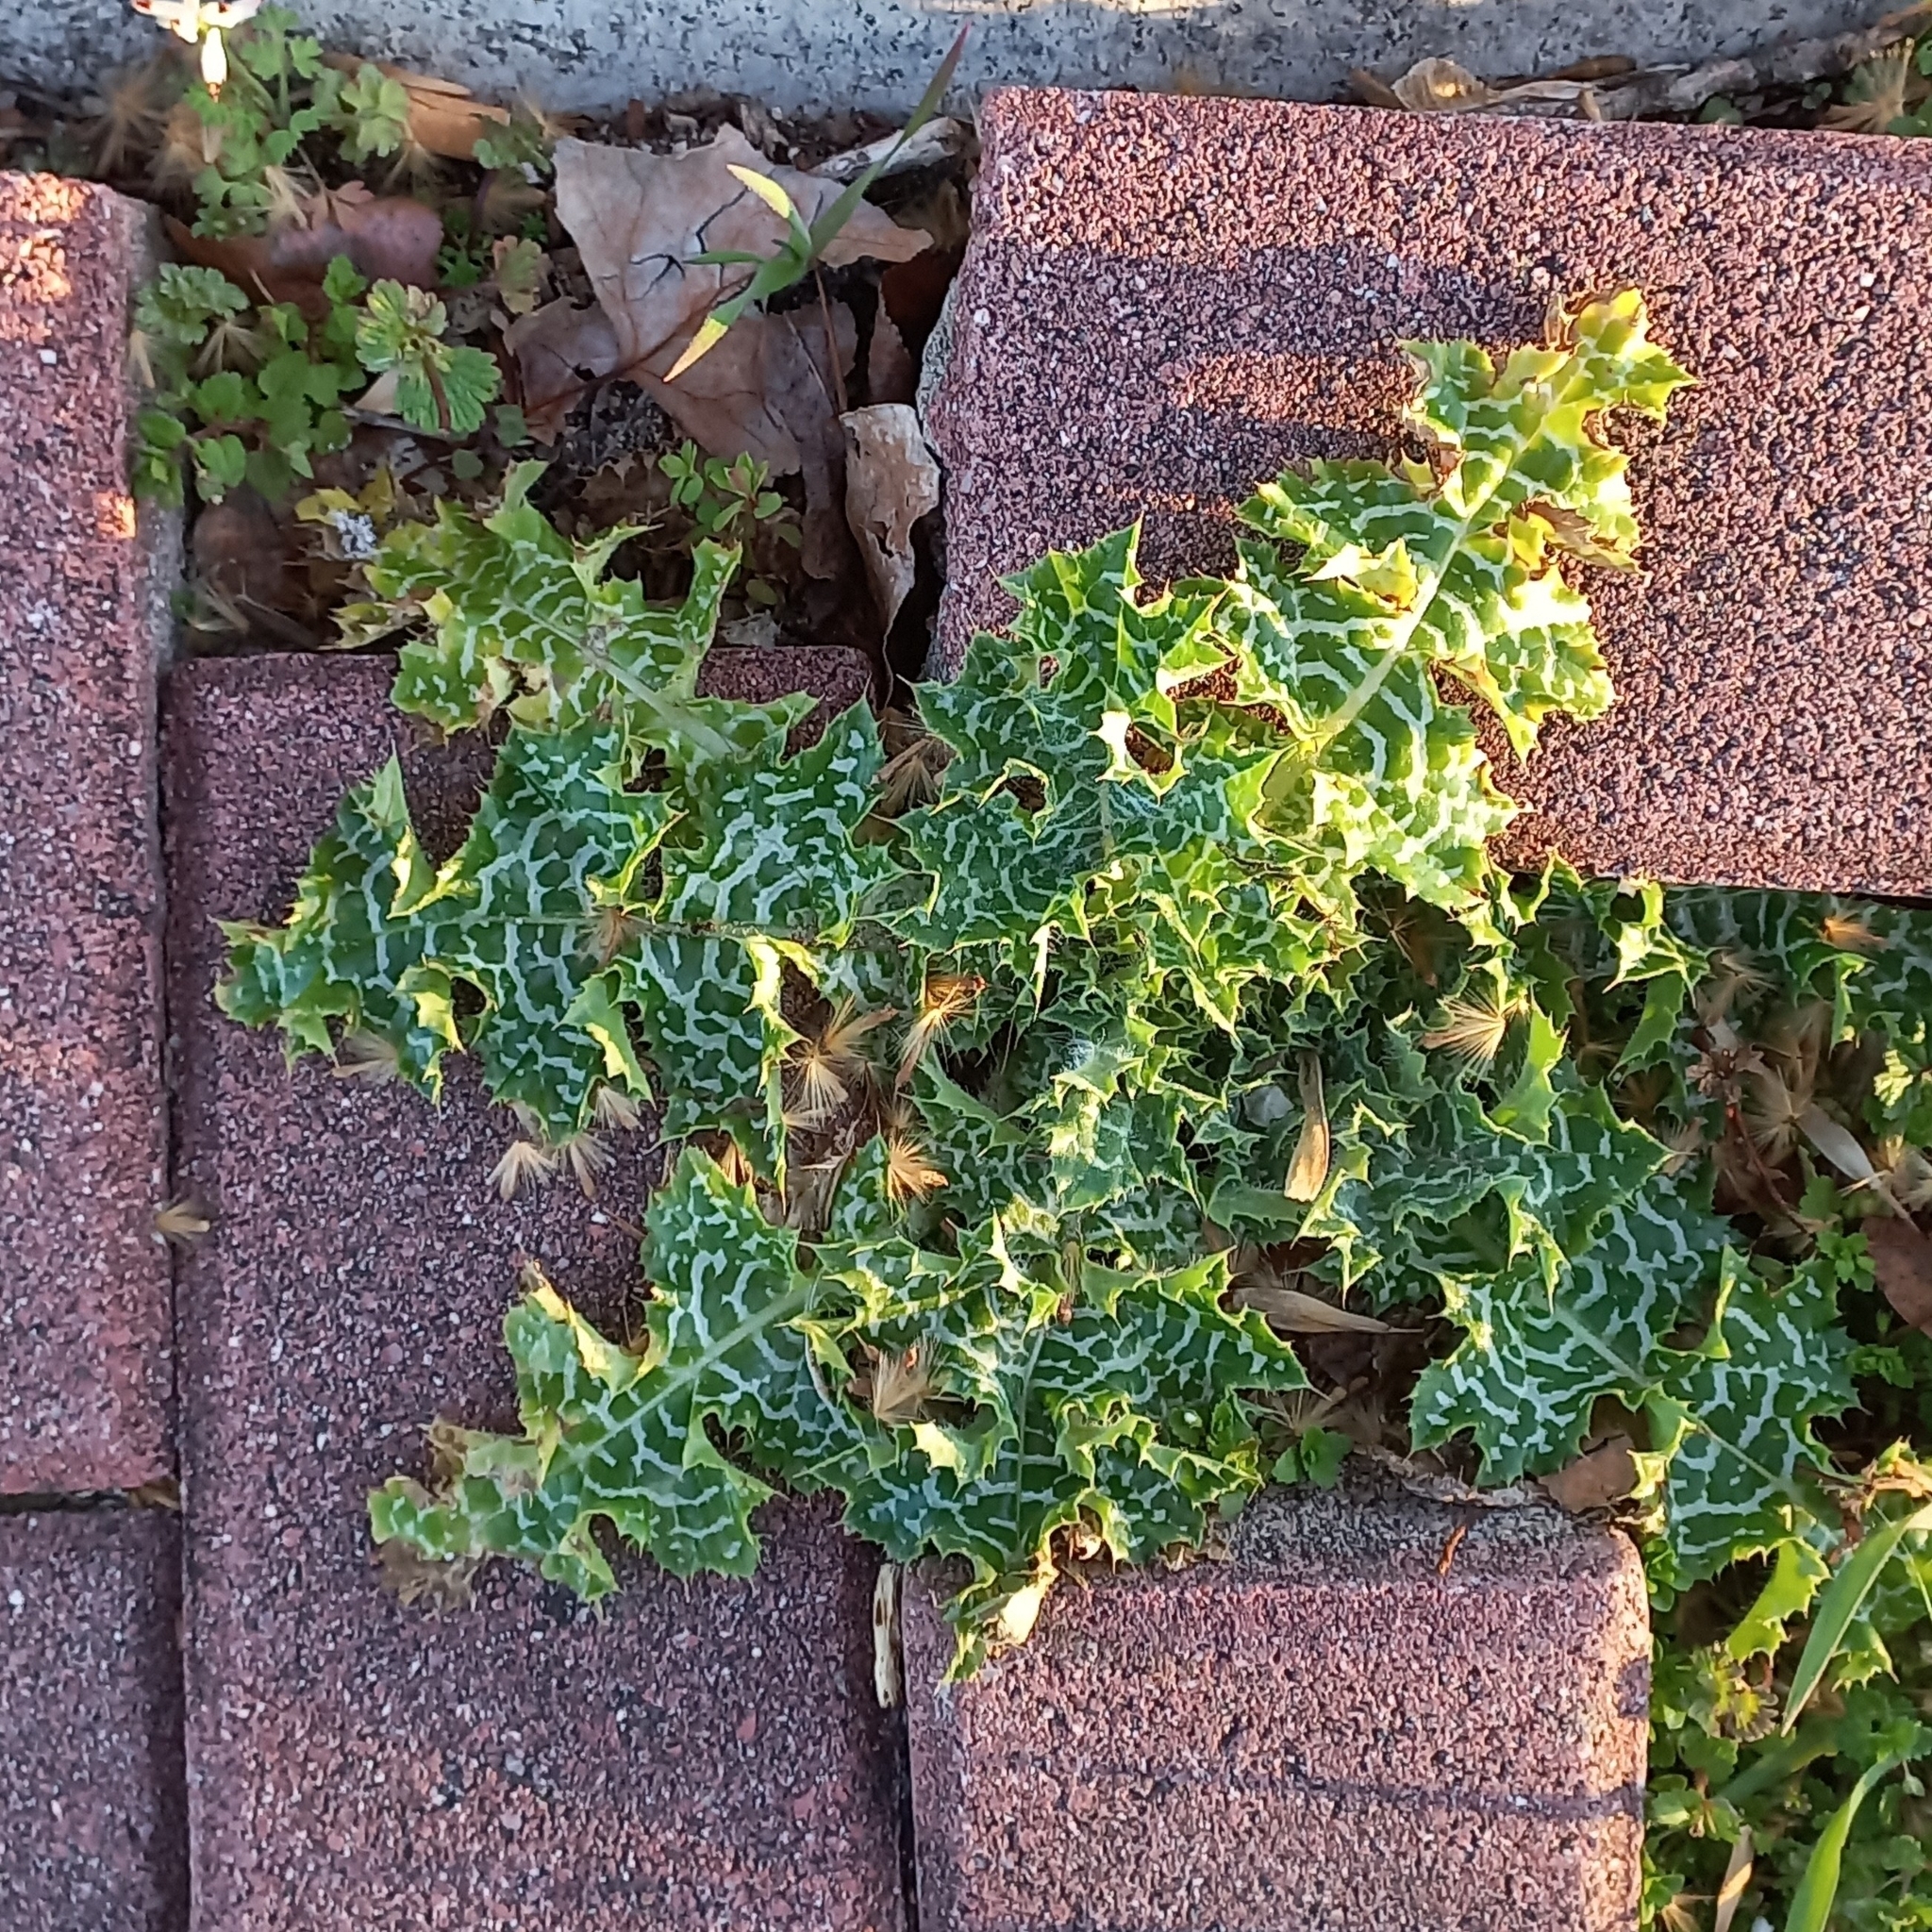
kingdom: Plantae
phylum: Tracheophyta
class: Magnoliopsida
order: Asterales
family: Asteraceae
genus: Silybum
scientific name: Silybum marianum
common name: Milk thistle
